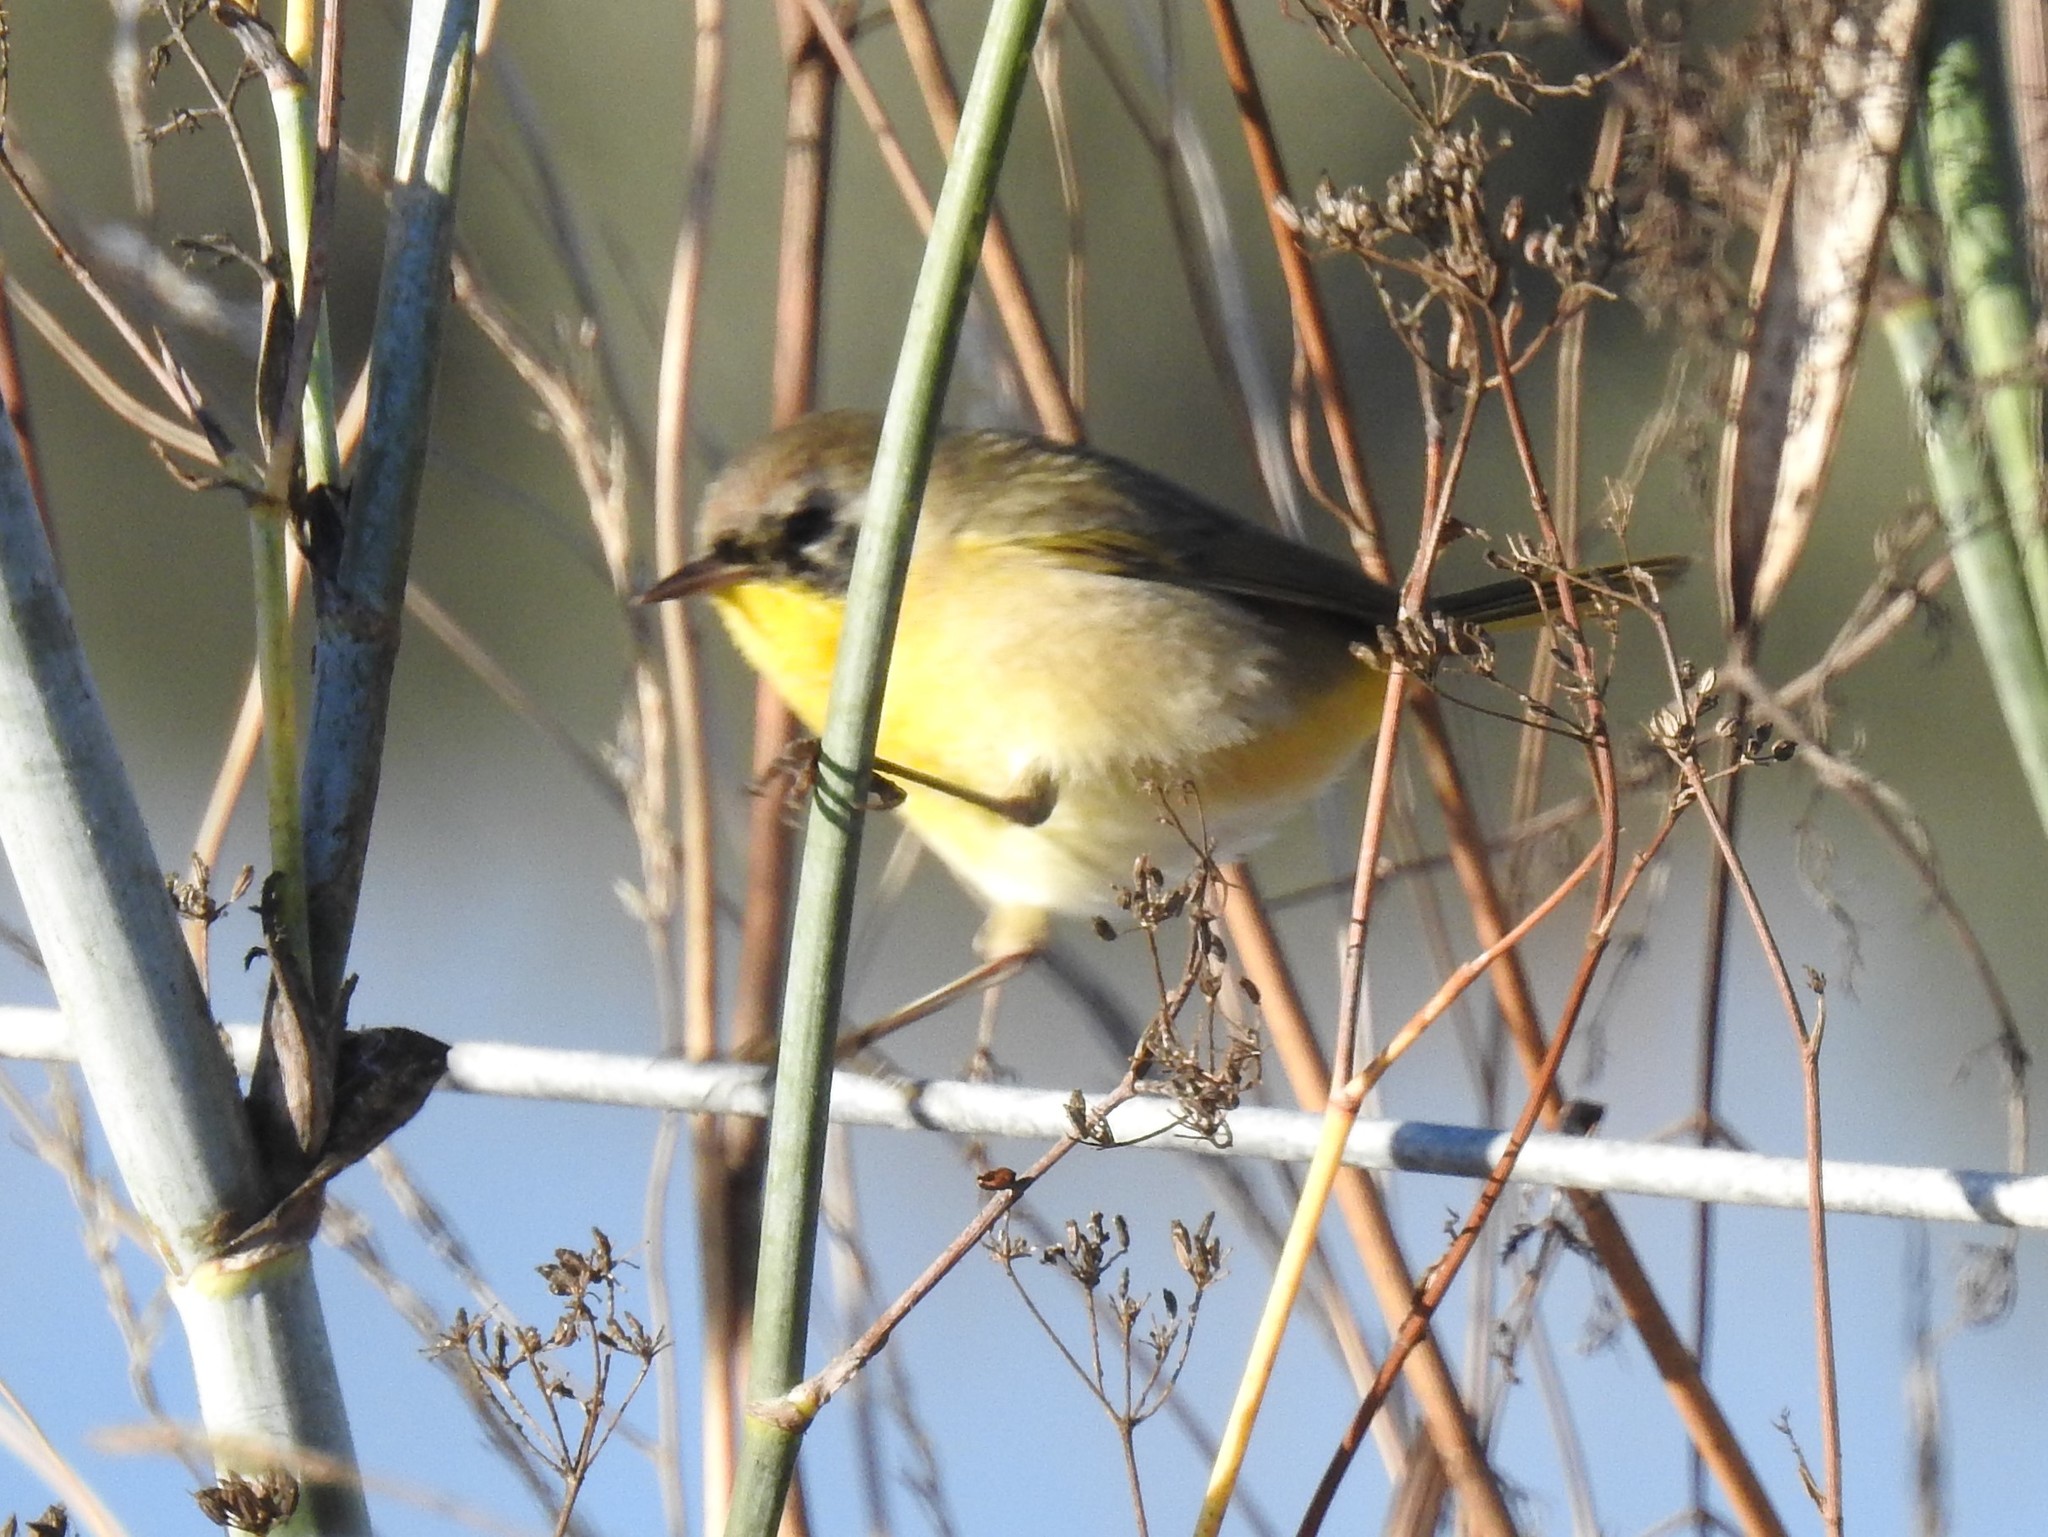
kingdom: Animalia
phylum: Chordata
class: Aves
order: Passeriformes
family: Parulidae
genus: Geothlypis
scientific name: Geothlypis trichas
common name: Common yellowthroat
